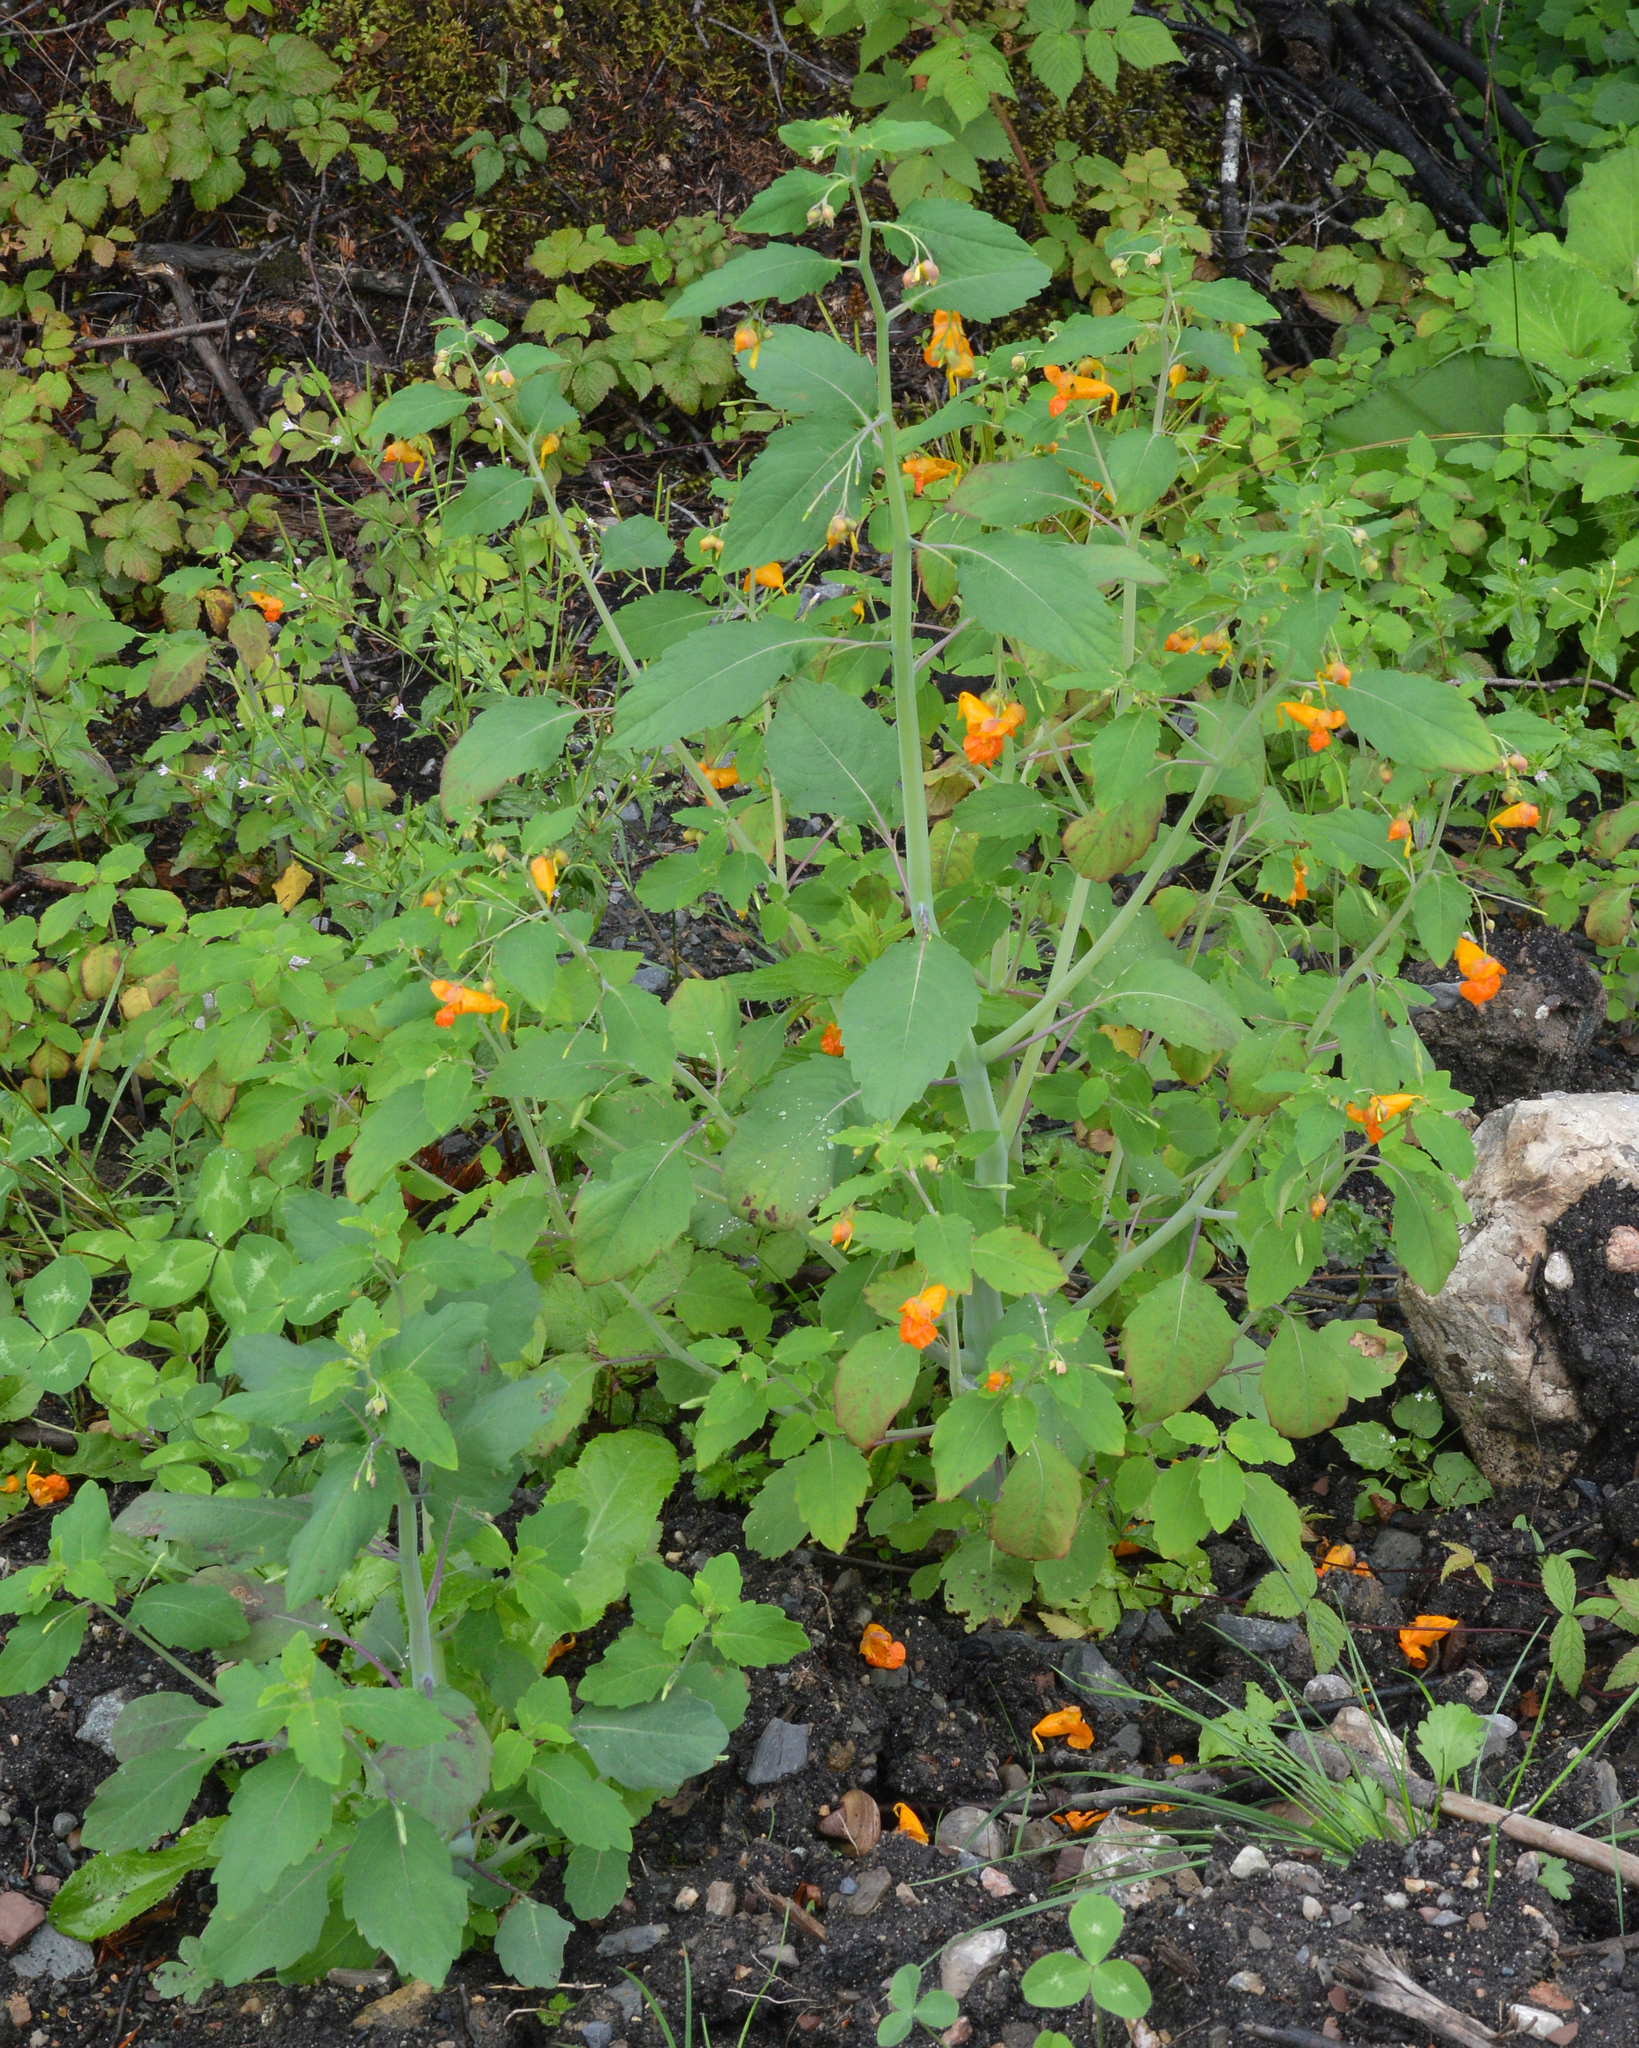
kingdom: Plantae
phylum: Tracheophyta
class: Magnoliopsida
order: Ericales
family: Balsaminaceae
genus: Impatiens
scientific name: Impatiens capensis
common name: Orange balsam
